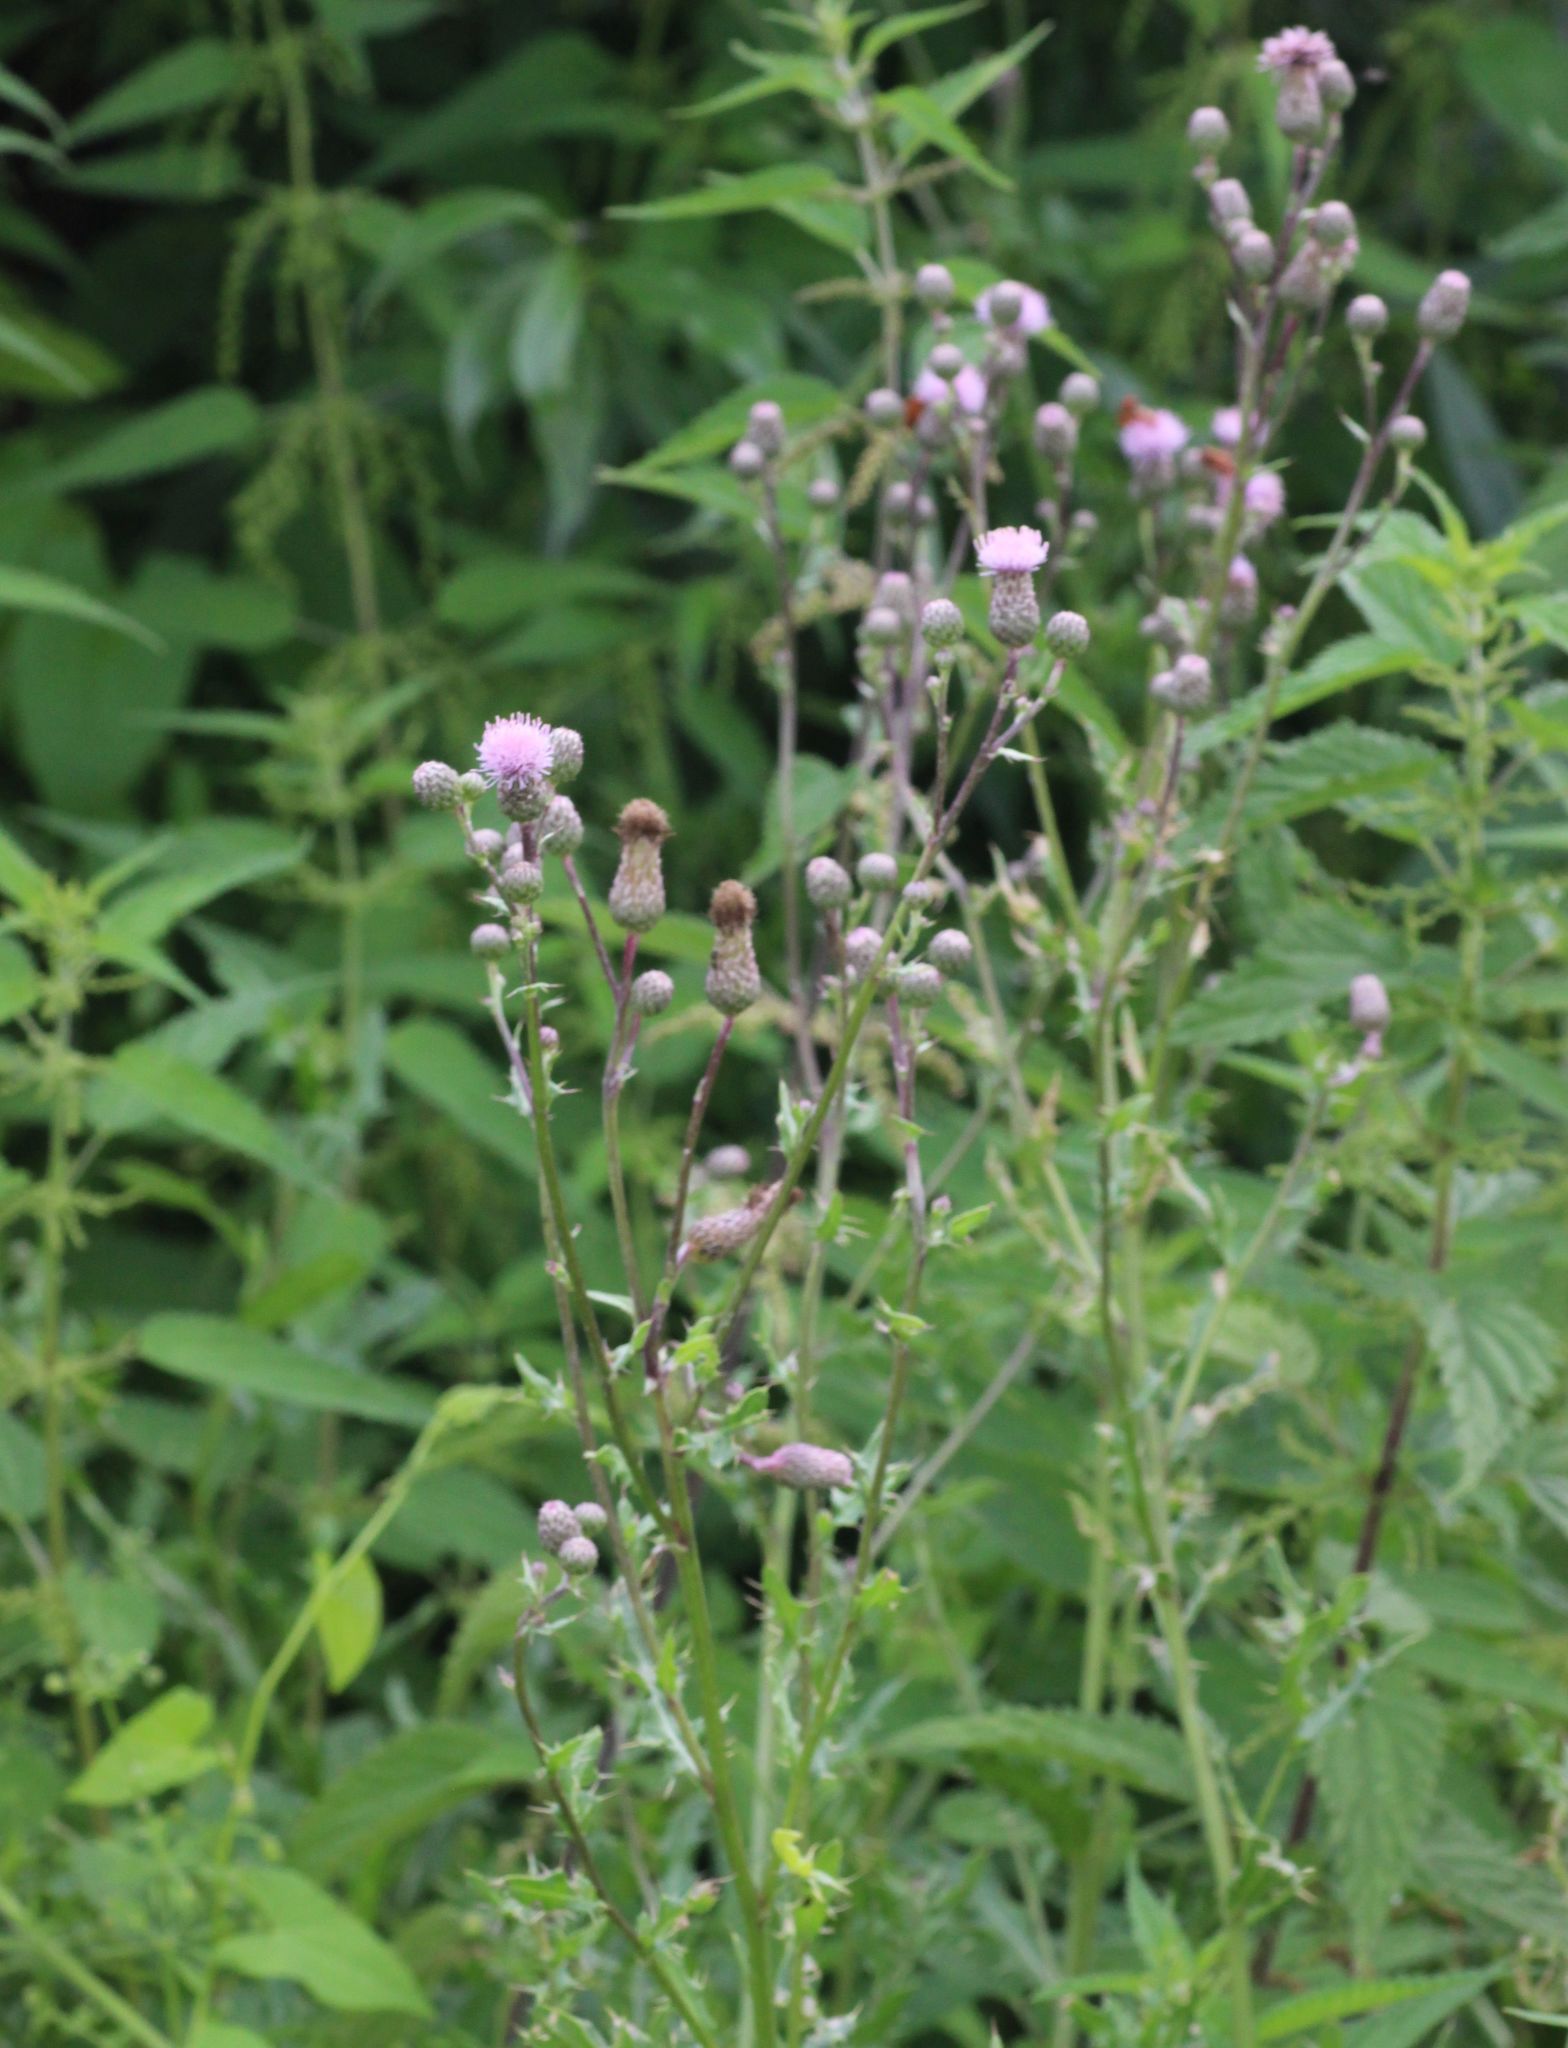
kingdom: Plantae
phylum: Tracheophyta
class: Magnoliopsida
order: Asterales
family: Asteraceae
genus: Cirsium
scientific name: Cirsium arvense
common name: Creeping thistle
